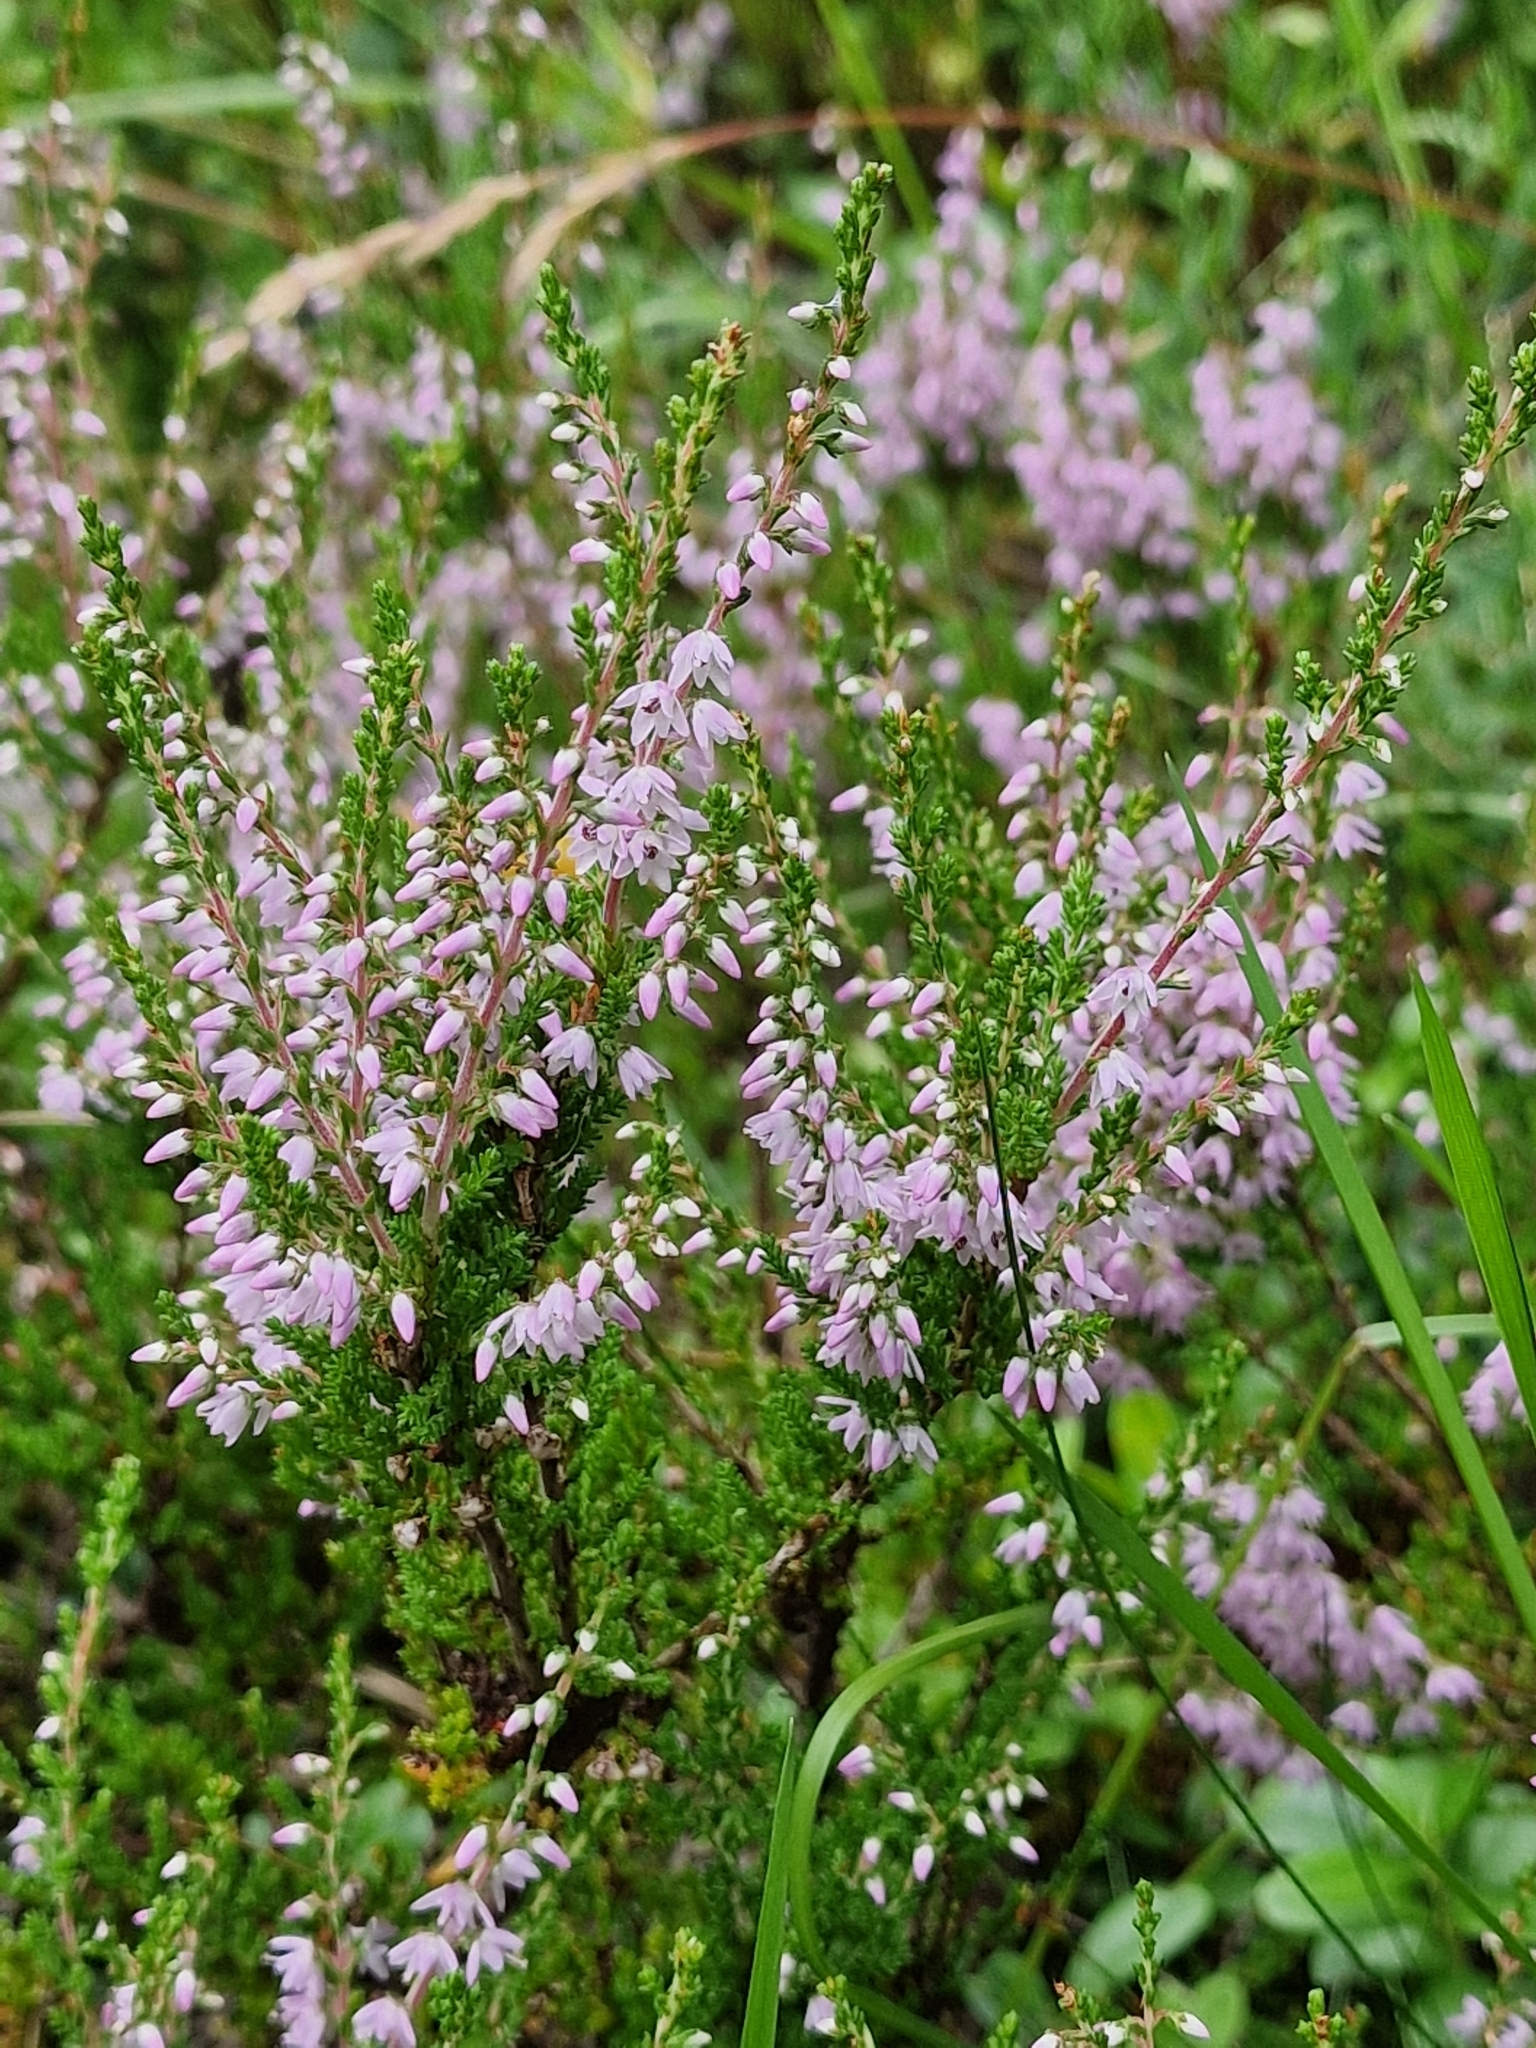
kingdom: Plantae
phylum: Tracheophyta
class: Magnoliopsida
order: Ericales
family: Ericaceae
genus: Calluna
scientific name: Calluna vulgaris
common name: Heather
